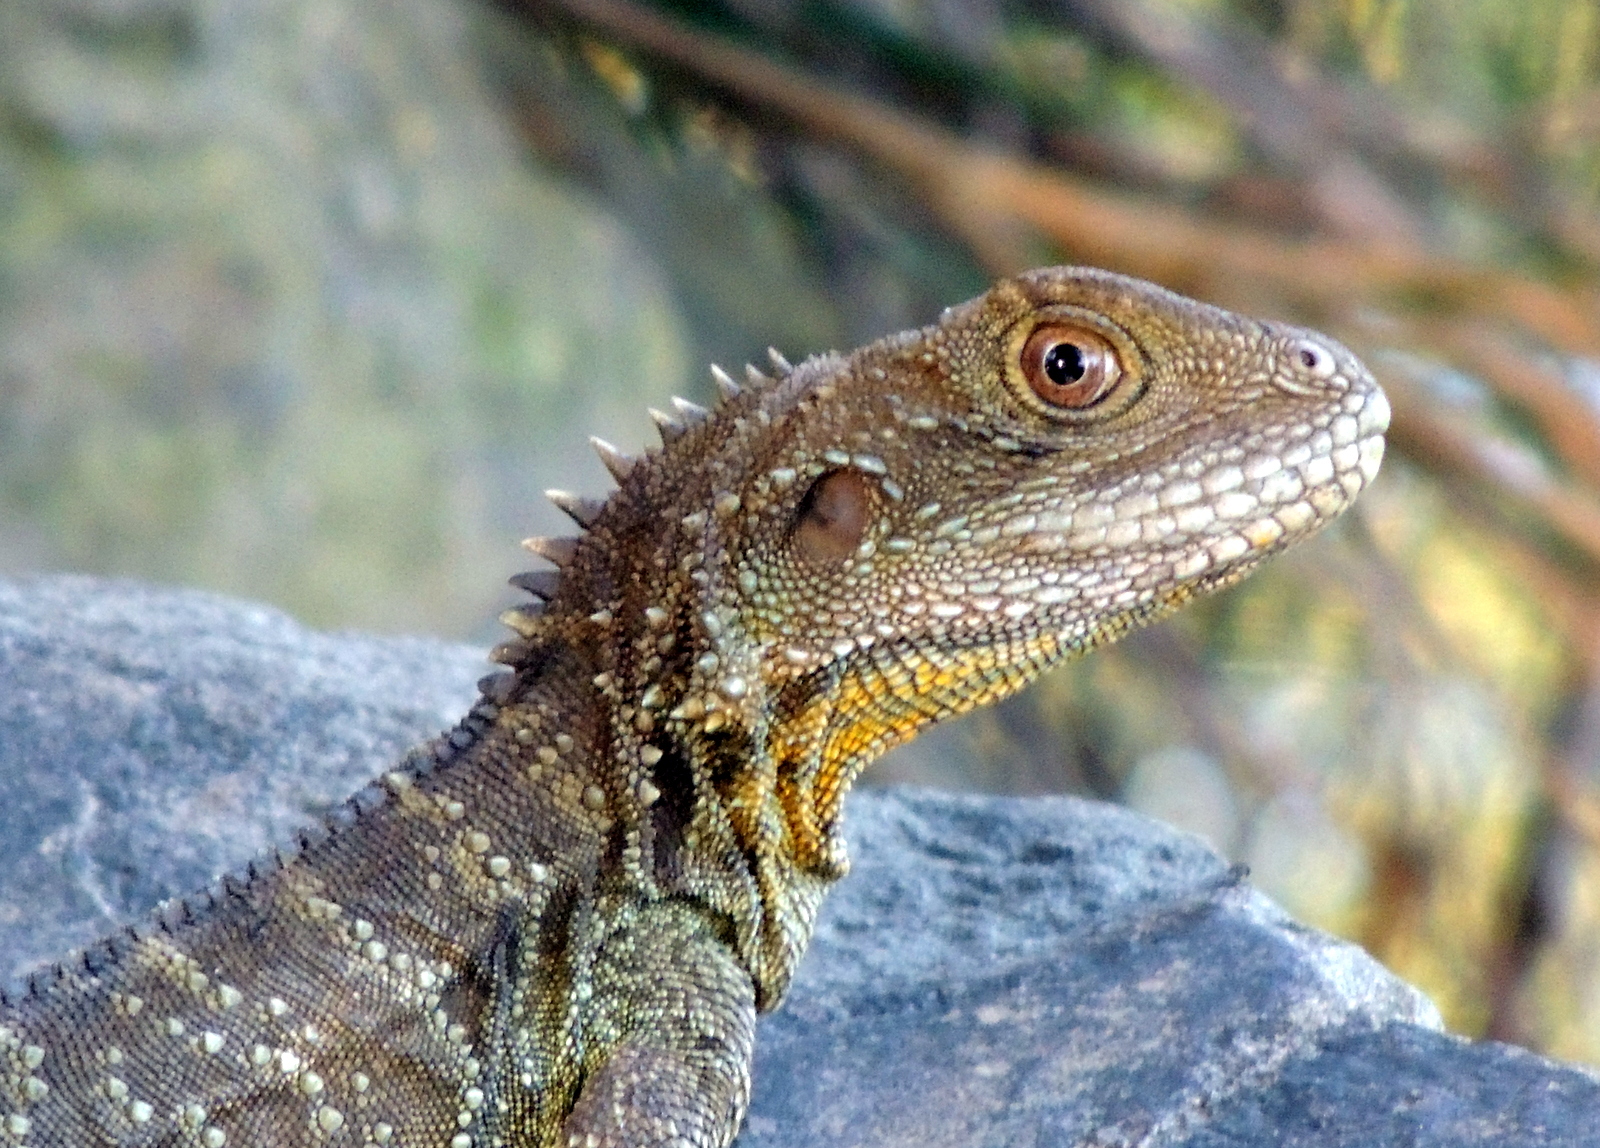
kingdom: Animalia
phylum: Chordata
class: Squamata
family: Agamidae
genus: Intellagama
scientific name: Intellagama lesueurii
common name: Eastern water dragon
